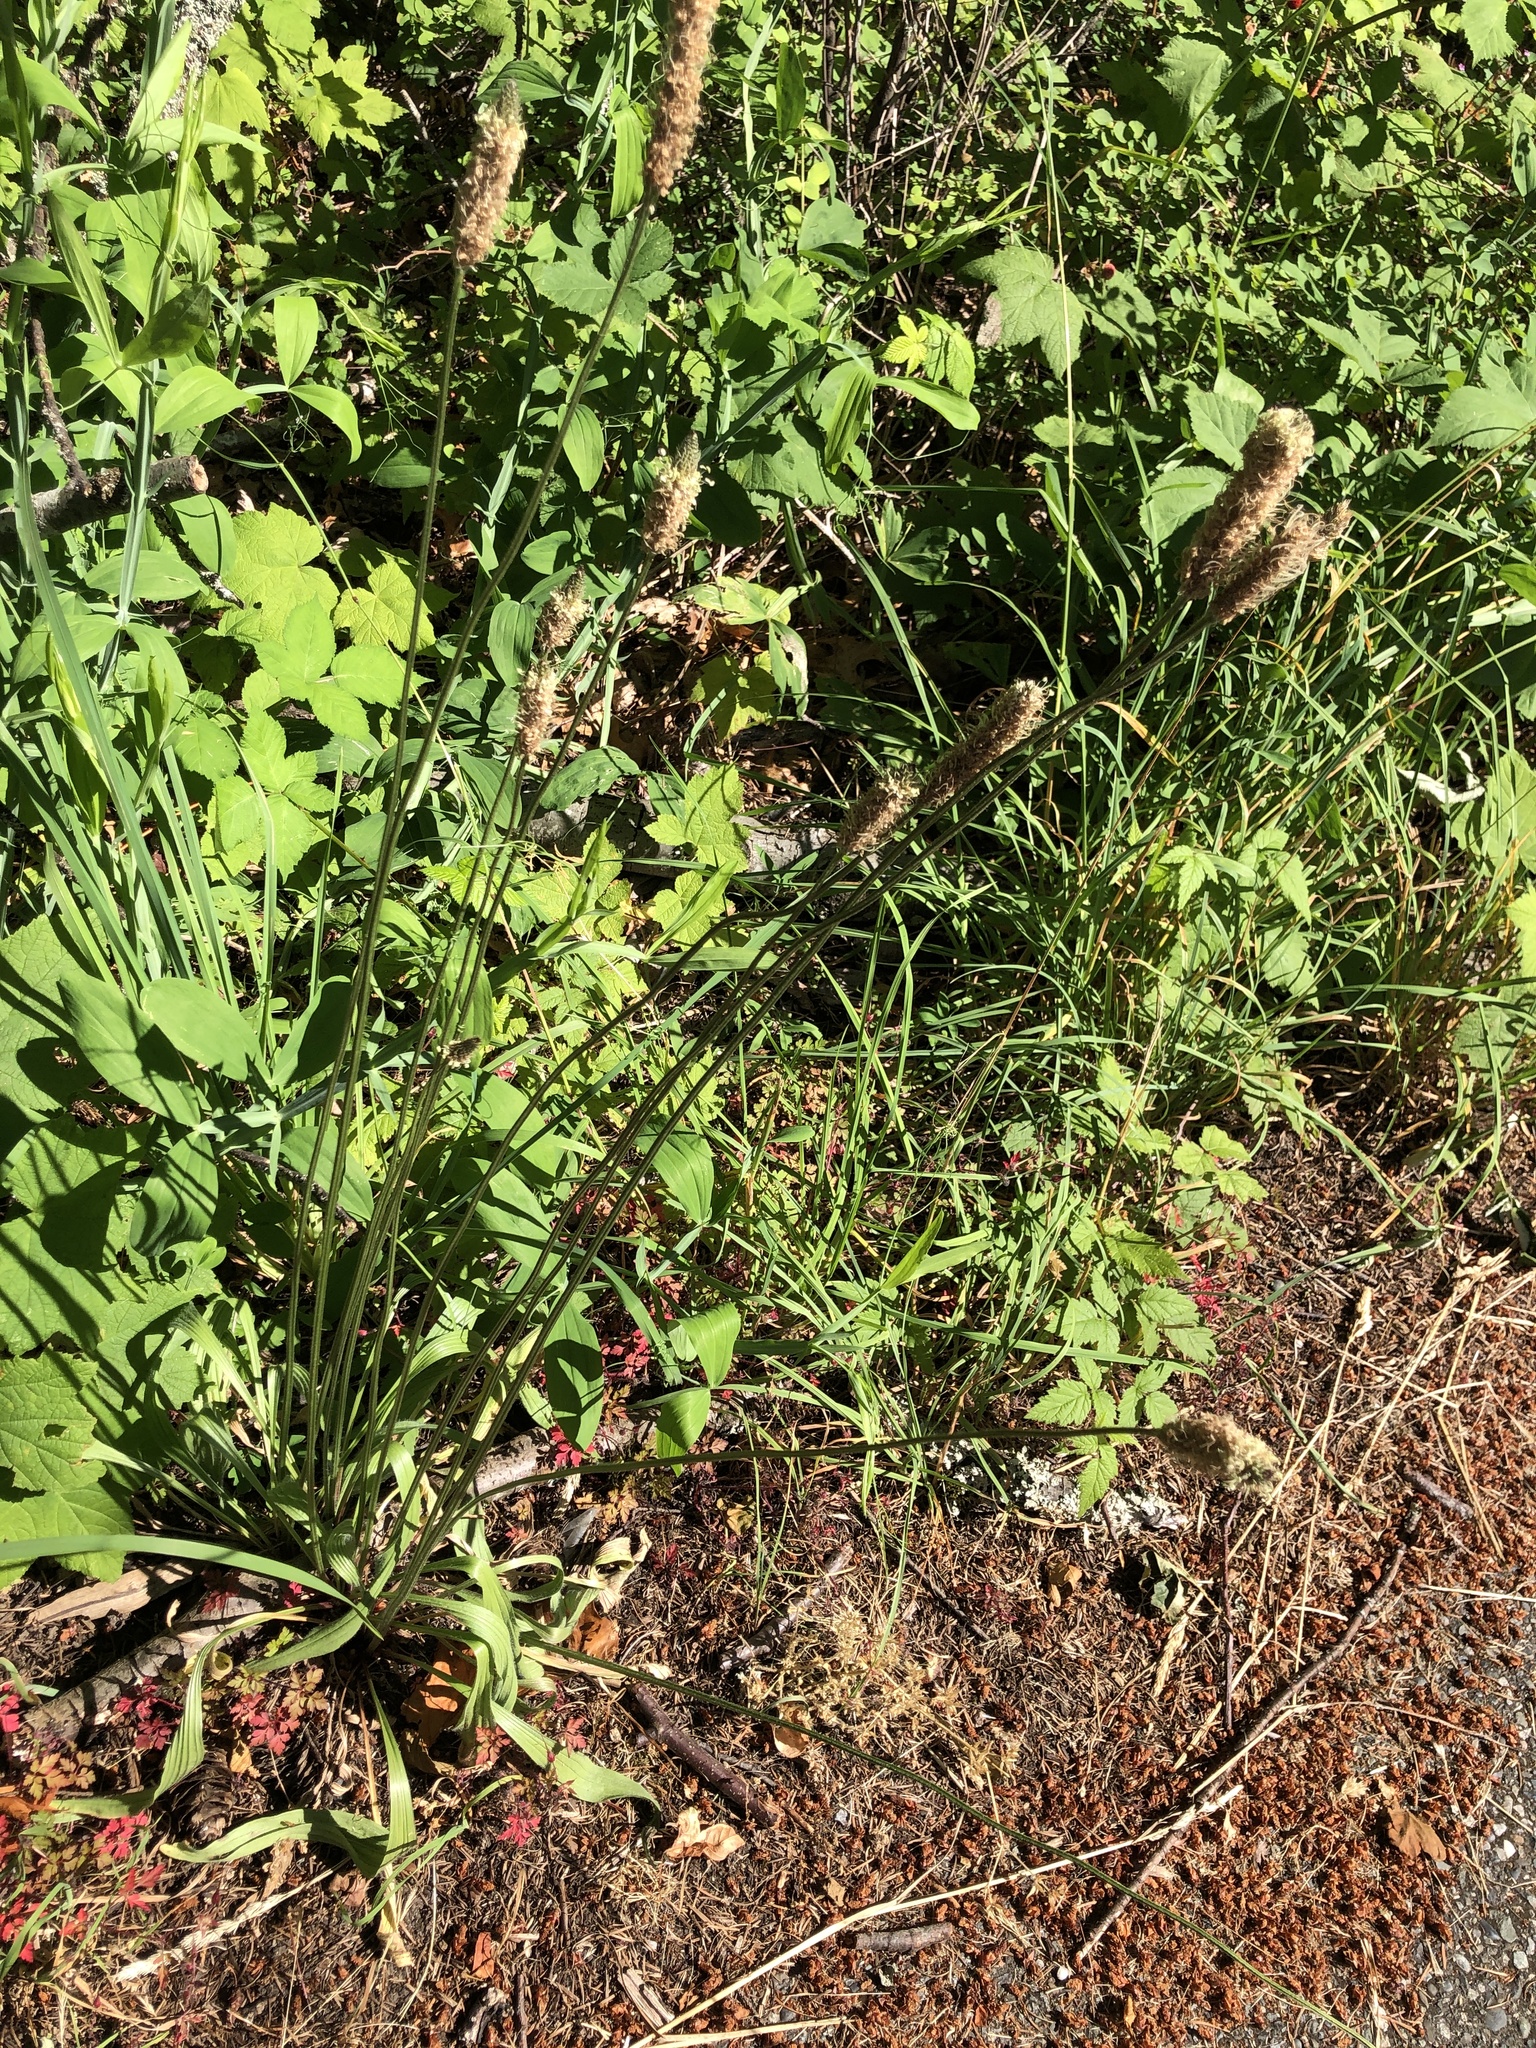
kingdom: Plantae
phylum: Tracheophyta
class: Magnoliopsida
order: Lamiales
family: Plantaginaceae
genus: Plantago
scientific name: Plantago lanceolata
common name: Ribwort plantain
